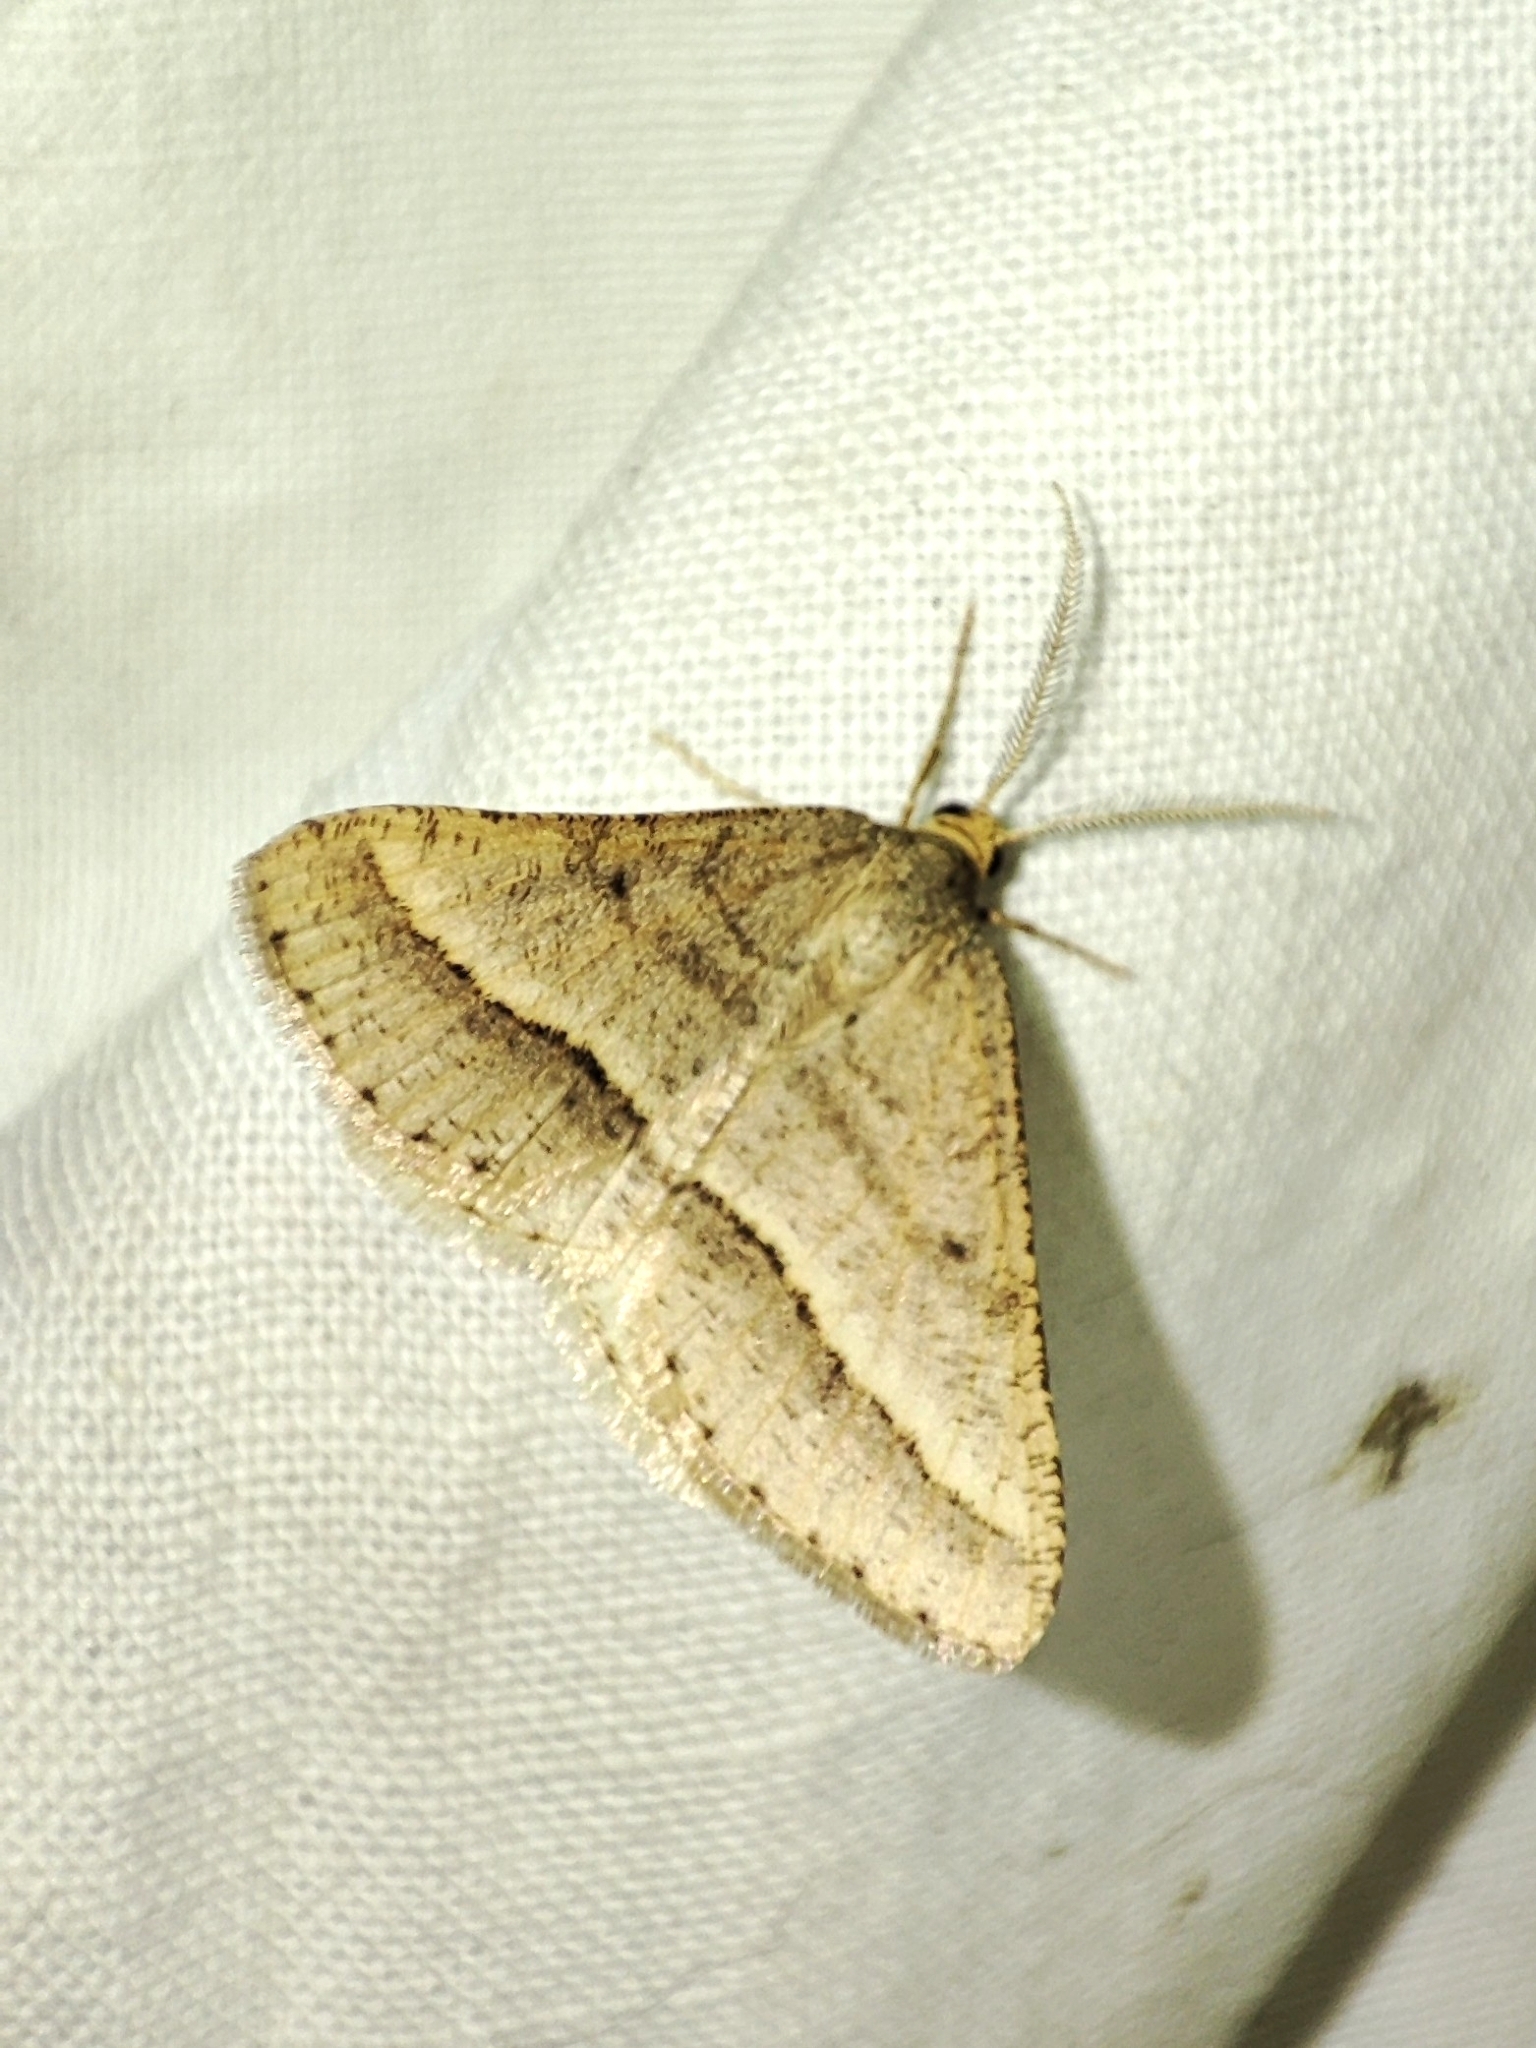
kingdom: Animalia
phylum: Arthropoda
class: Insecta
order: Lepidoptera
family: Geometridae
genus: Tephrina
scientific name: Tephrina arenacearia
